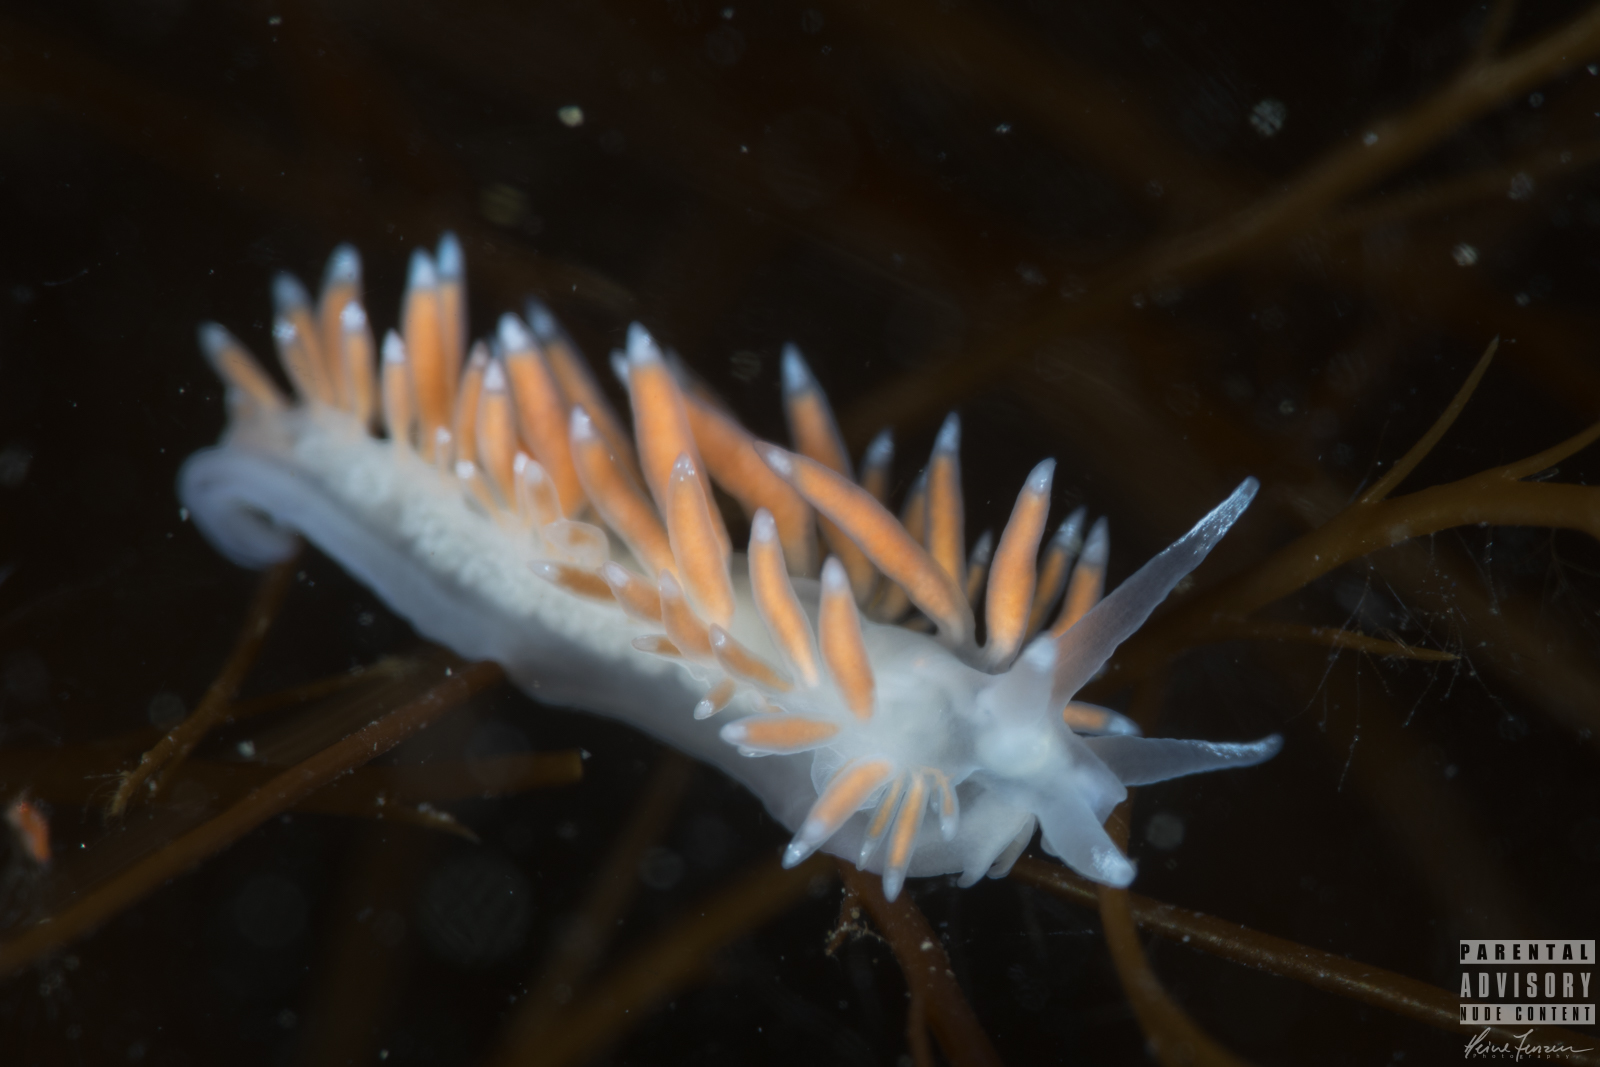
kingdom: Animalia
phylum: Mollusca
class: Gastropoda
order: Nudibranchia
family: Coryphellidae
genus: Coryphella
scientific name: Coryphella gracilis
